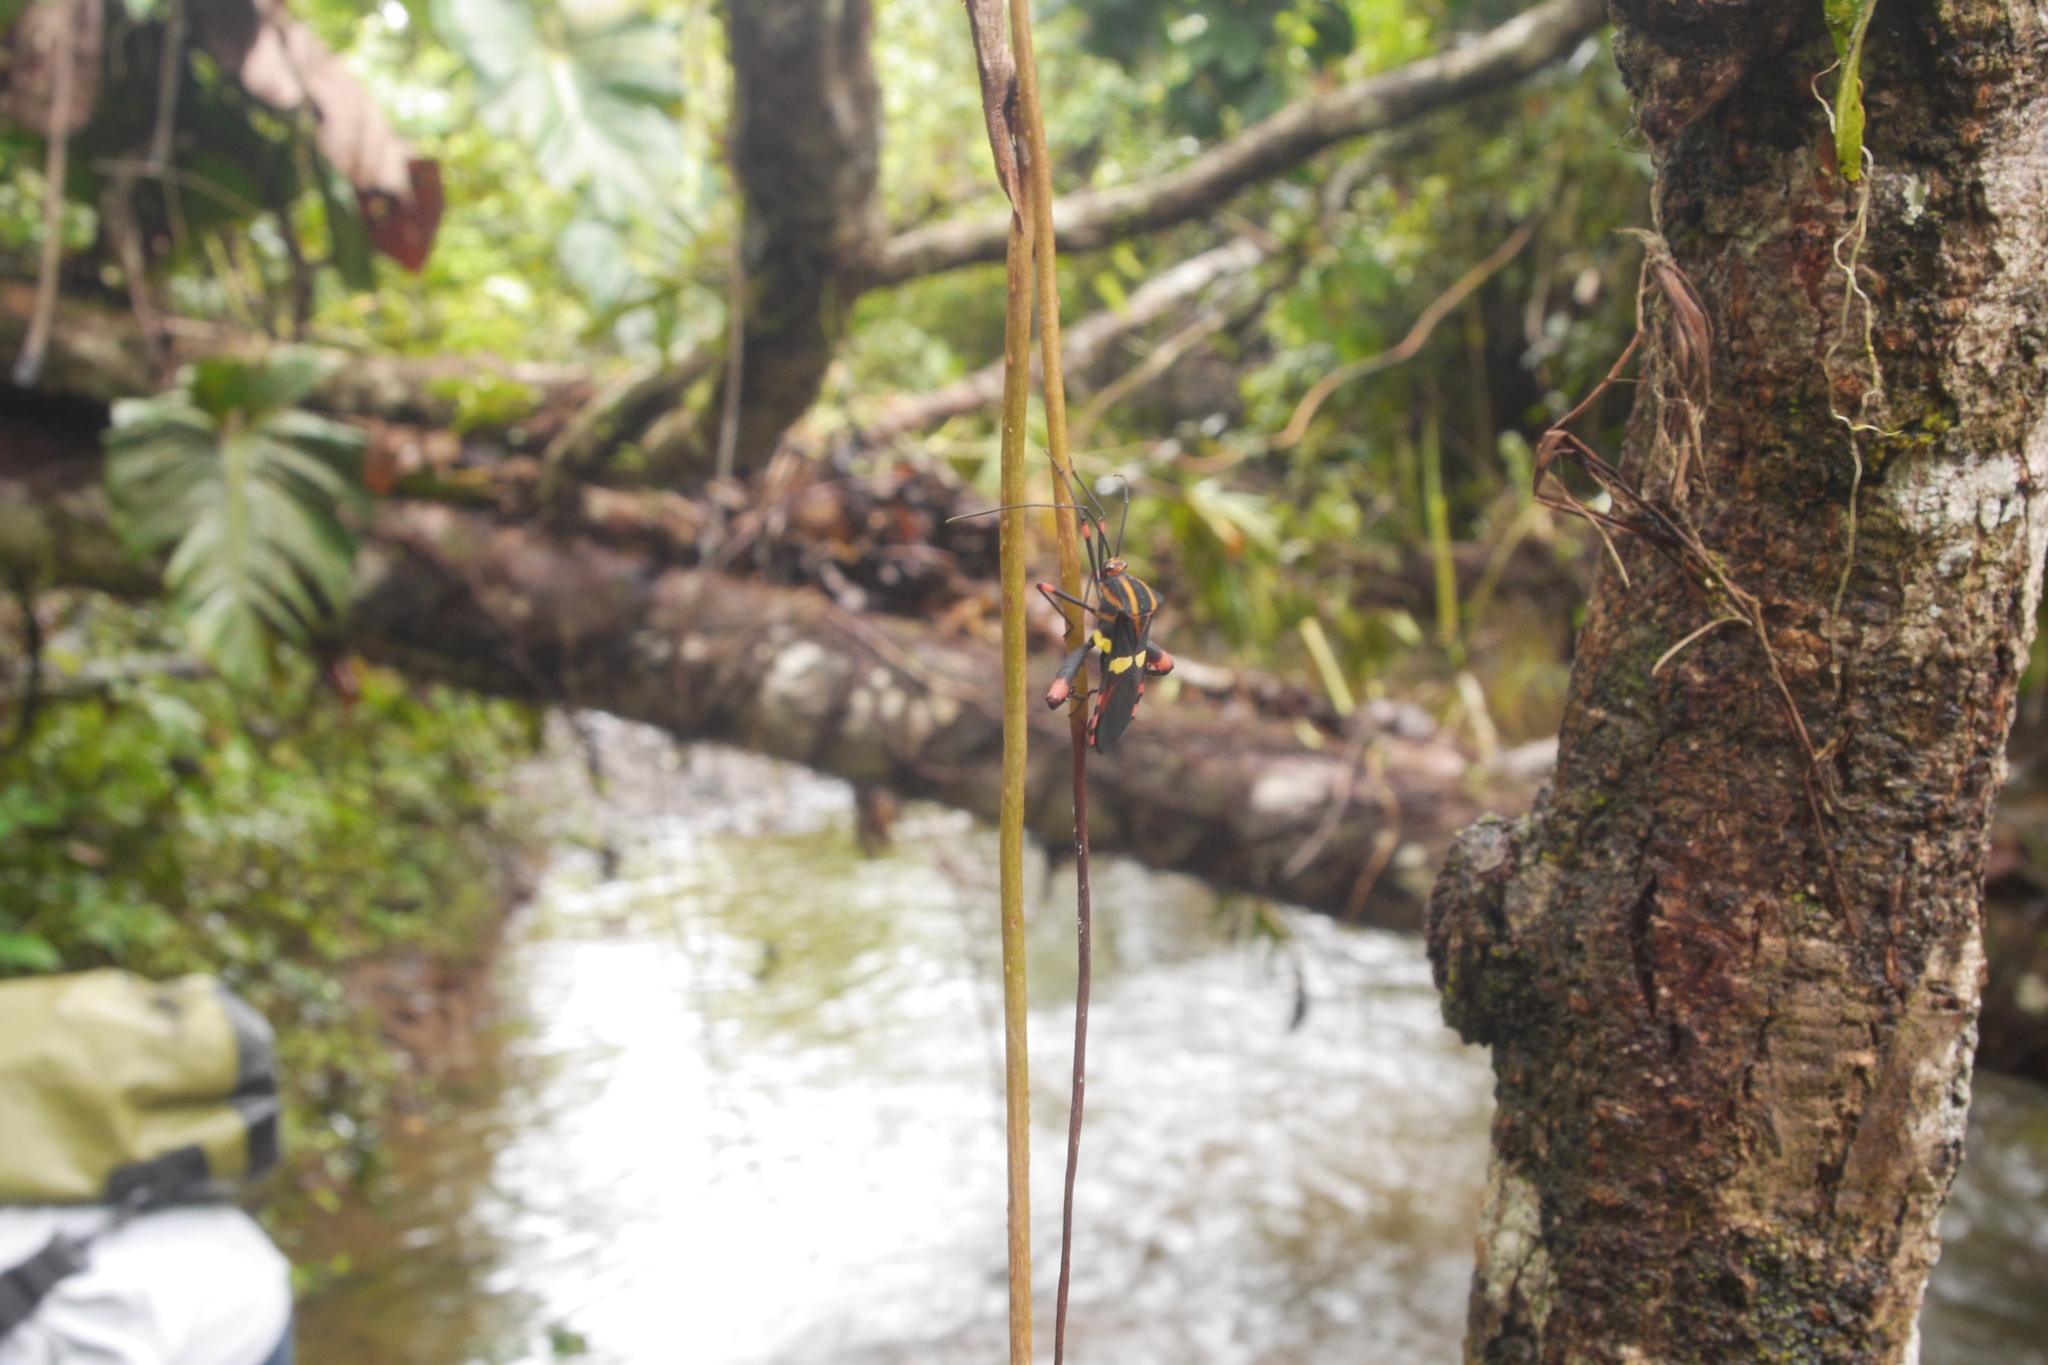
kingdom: Animalia
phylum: Arthropoda
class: Insecta
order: Hemiptera
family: Coreidae
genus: Schaeferocoris
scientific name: Schaeferocoris ecuadorensis
